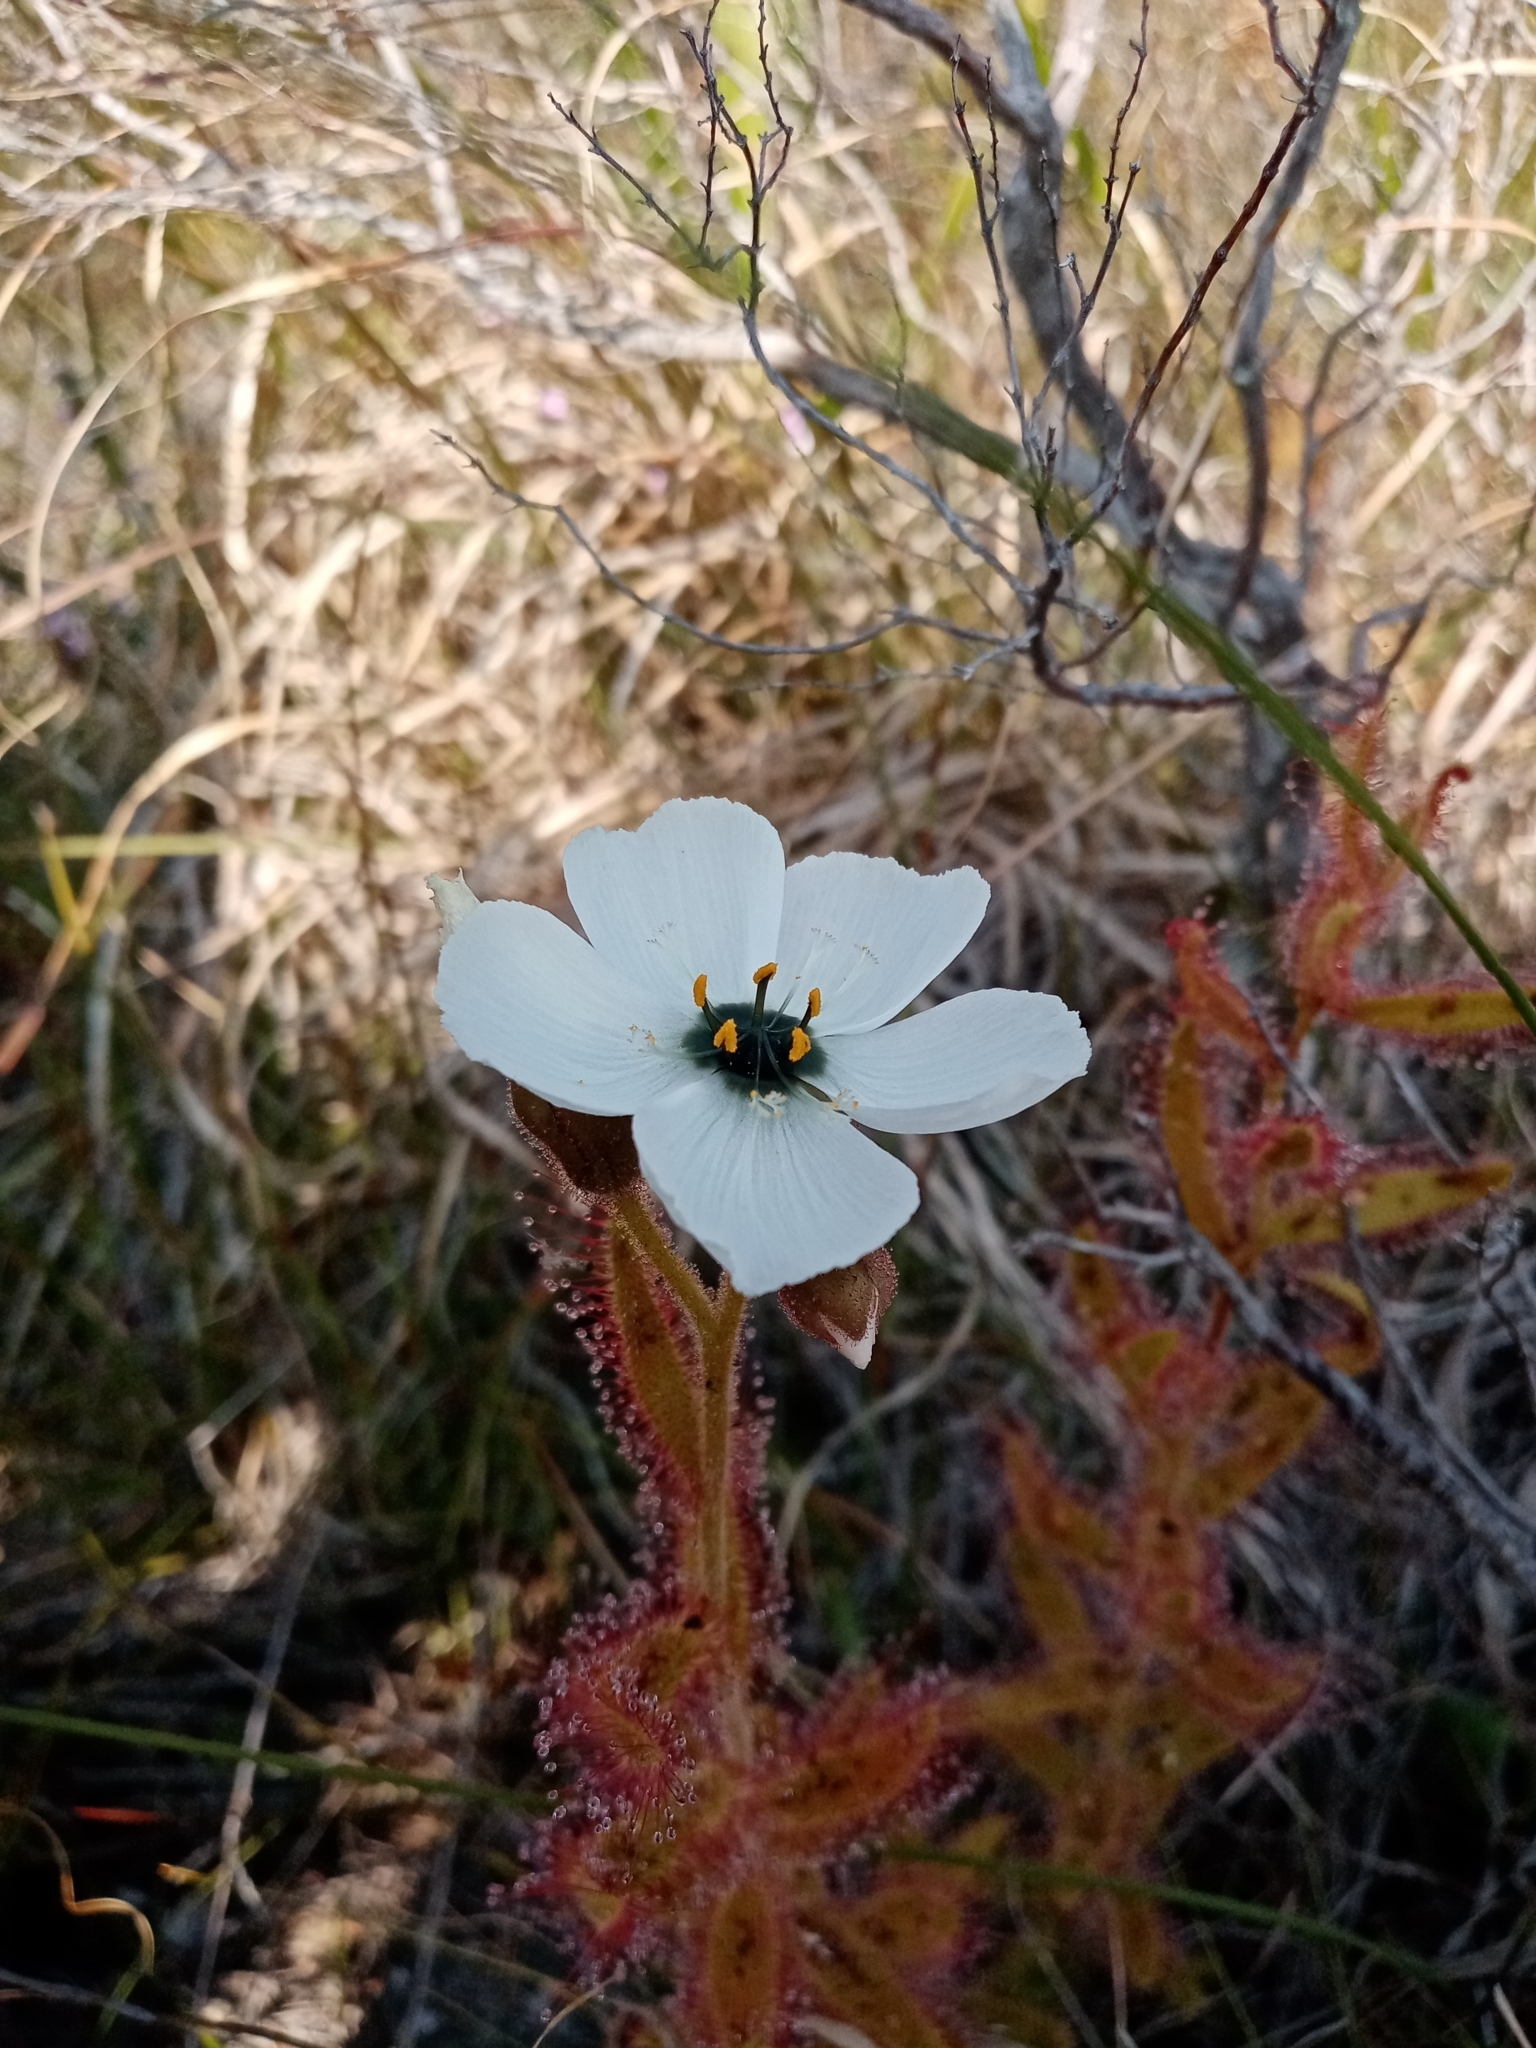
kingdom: Plantae
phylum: Tracheophyta
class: Magnoliopsida
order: Caryophyllales
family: Droseraceae
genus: Drosera
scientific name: Drosera cistiflora
